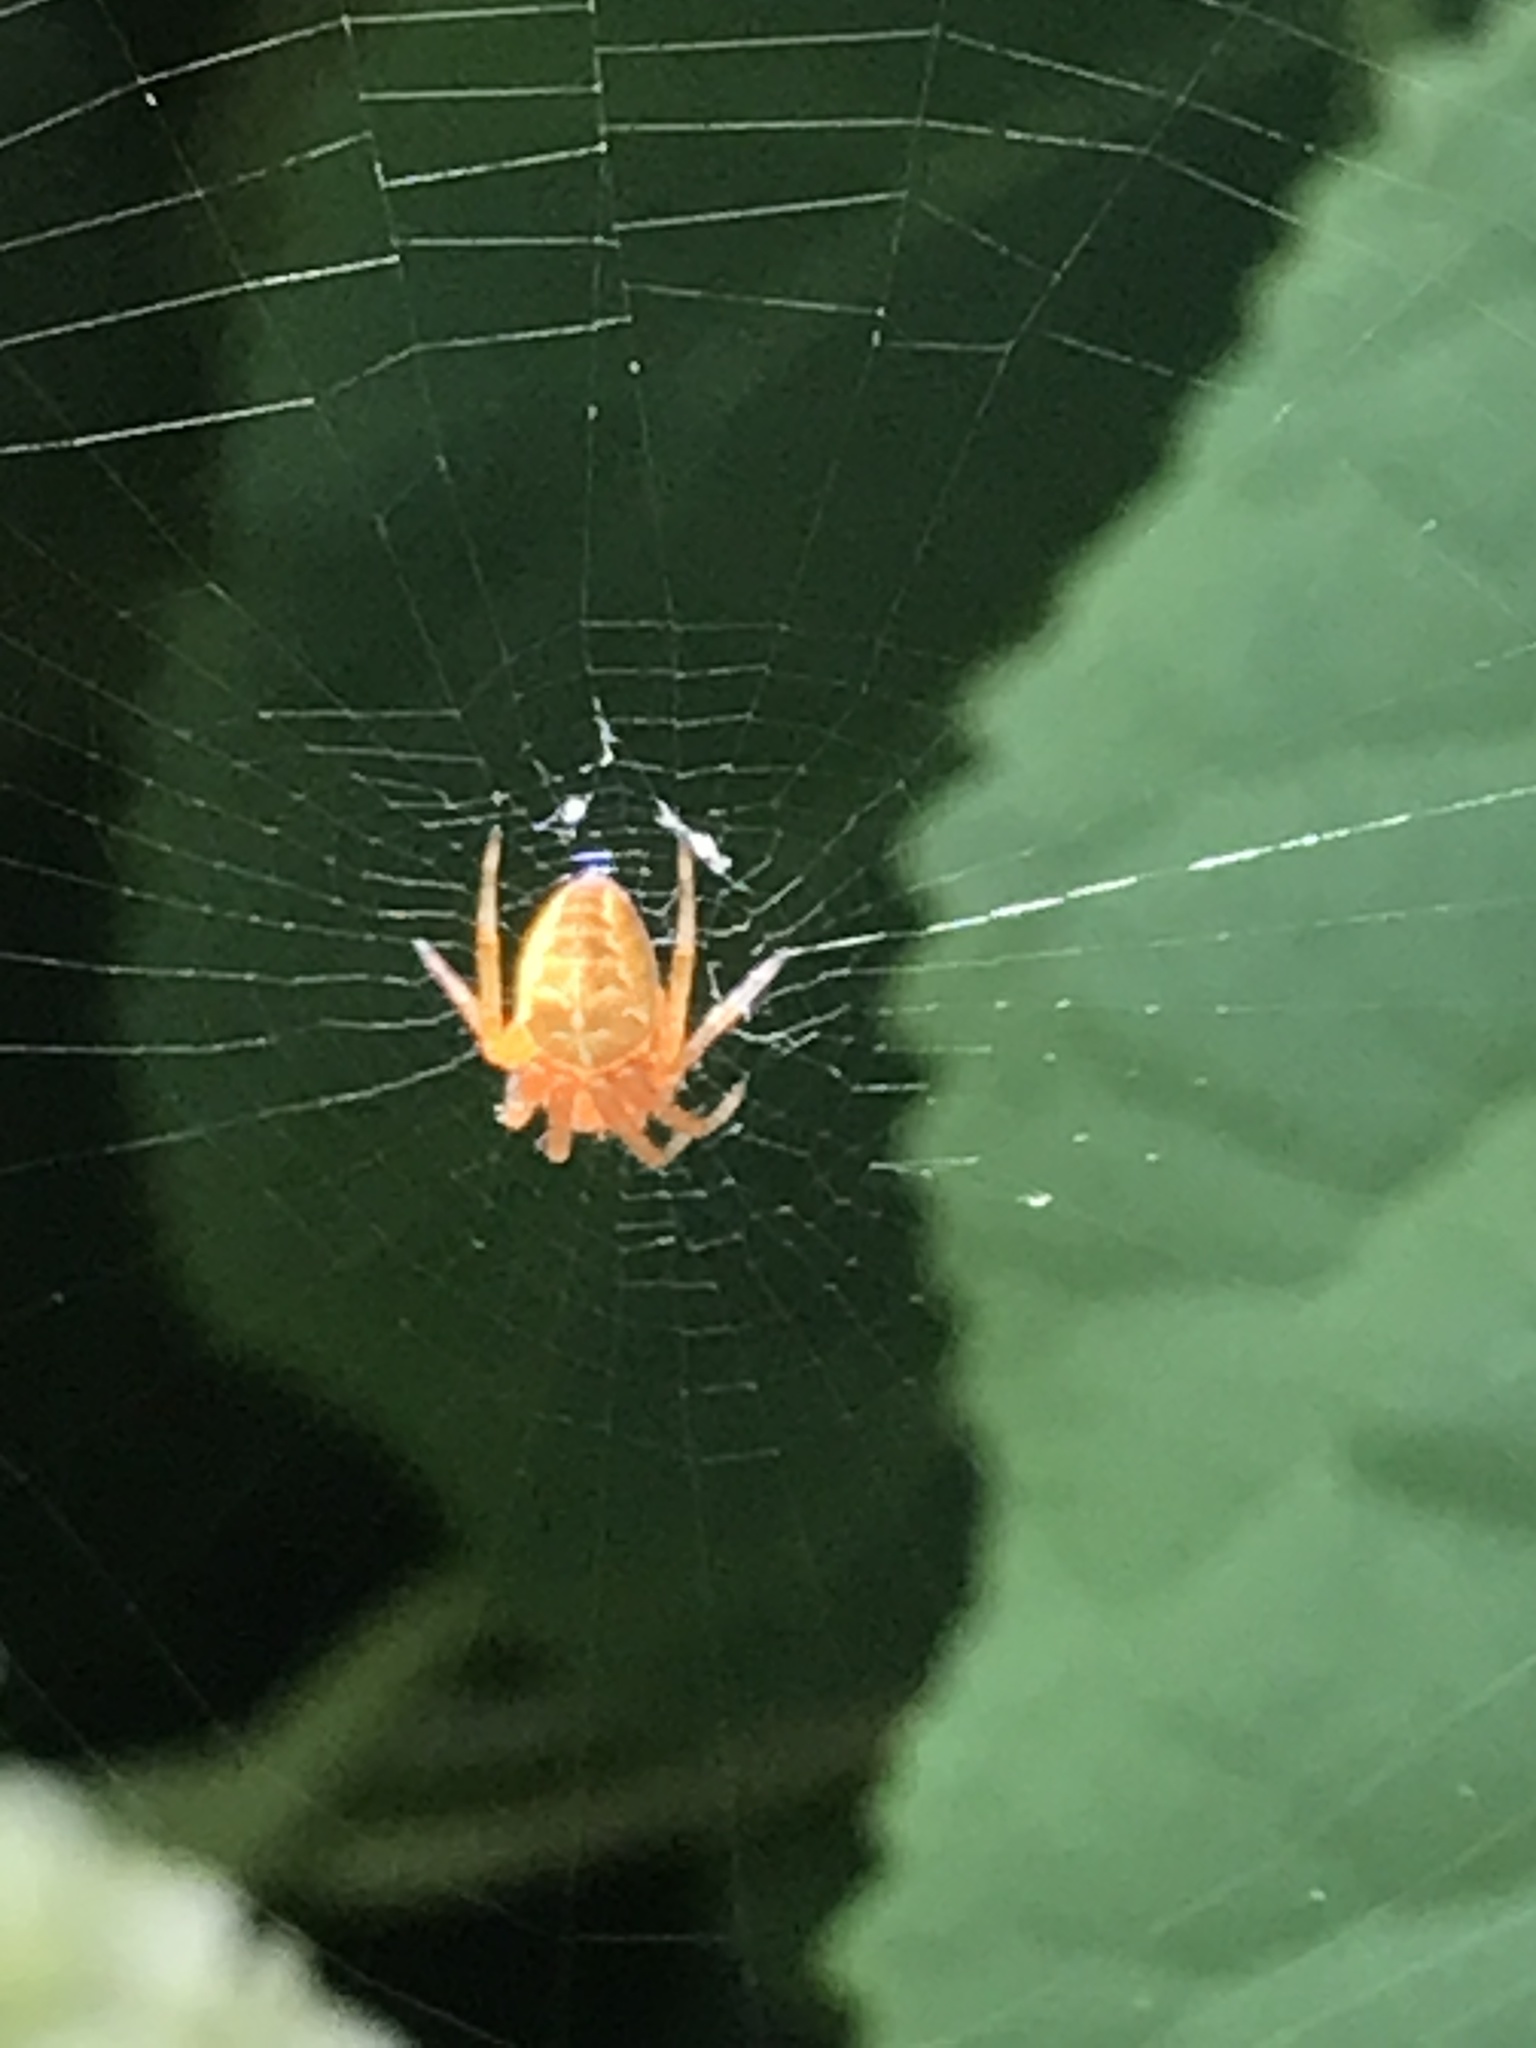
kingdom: Animalia
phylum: Arthropoda
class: Arachnida
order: Araneae
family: Araneidae
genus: Araneus
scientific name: Araneus diadematus
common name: Cross orbweaver
